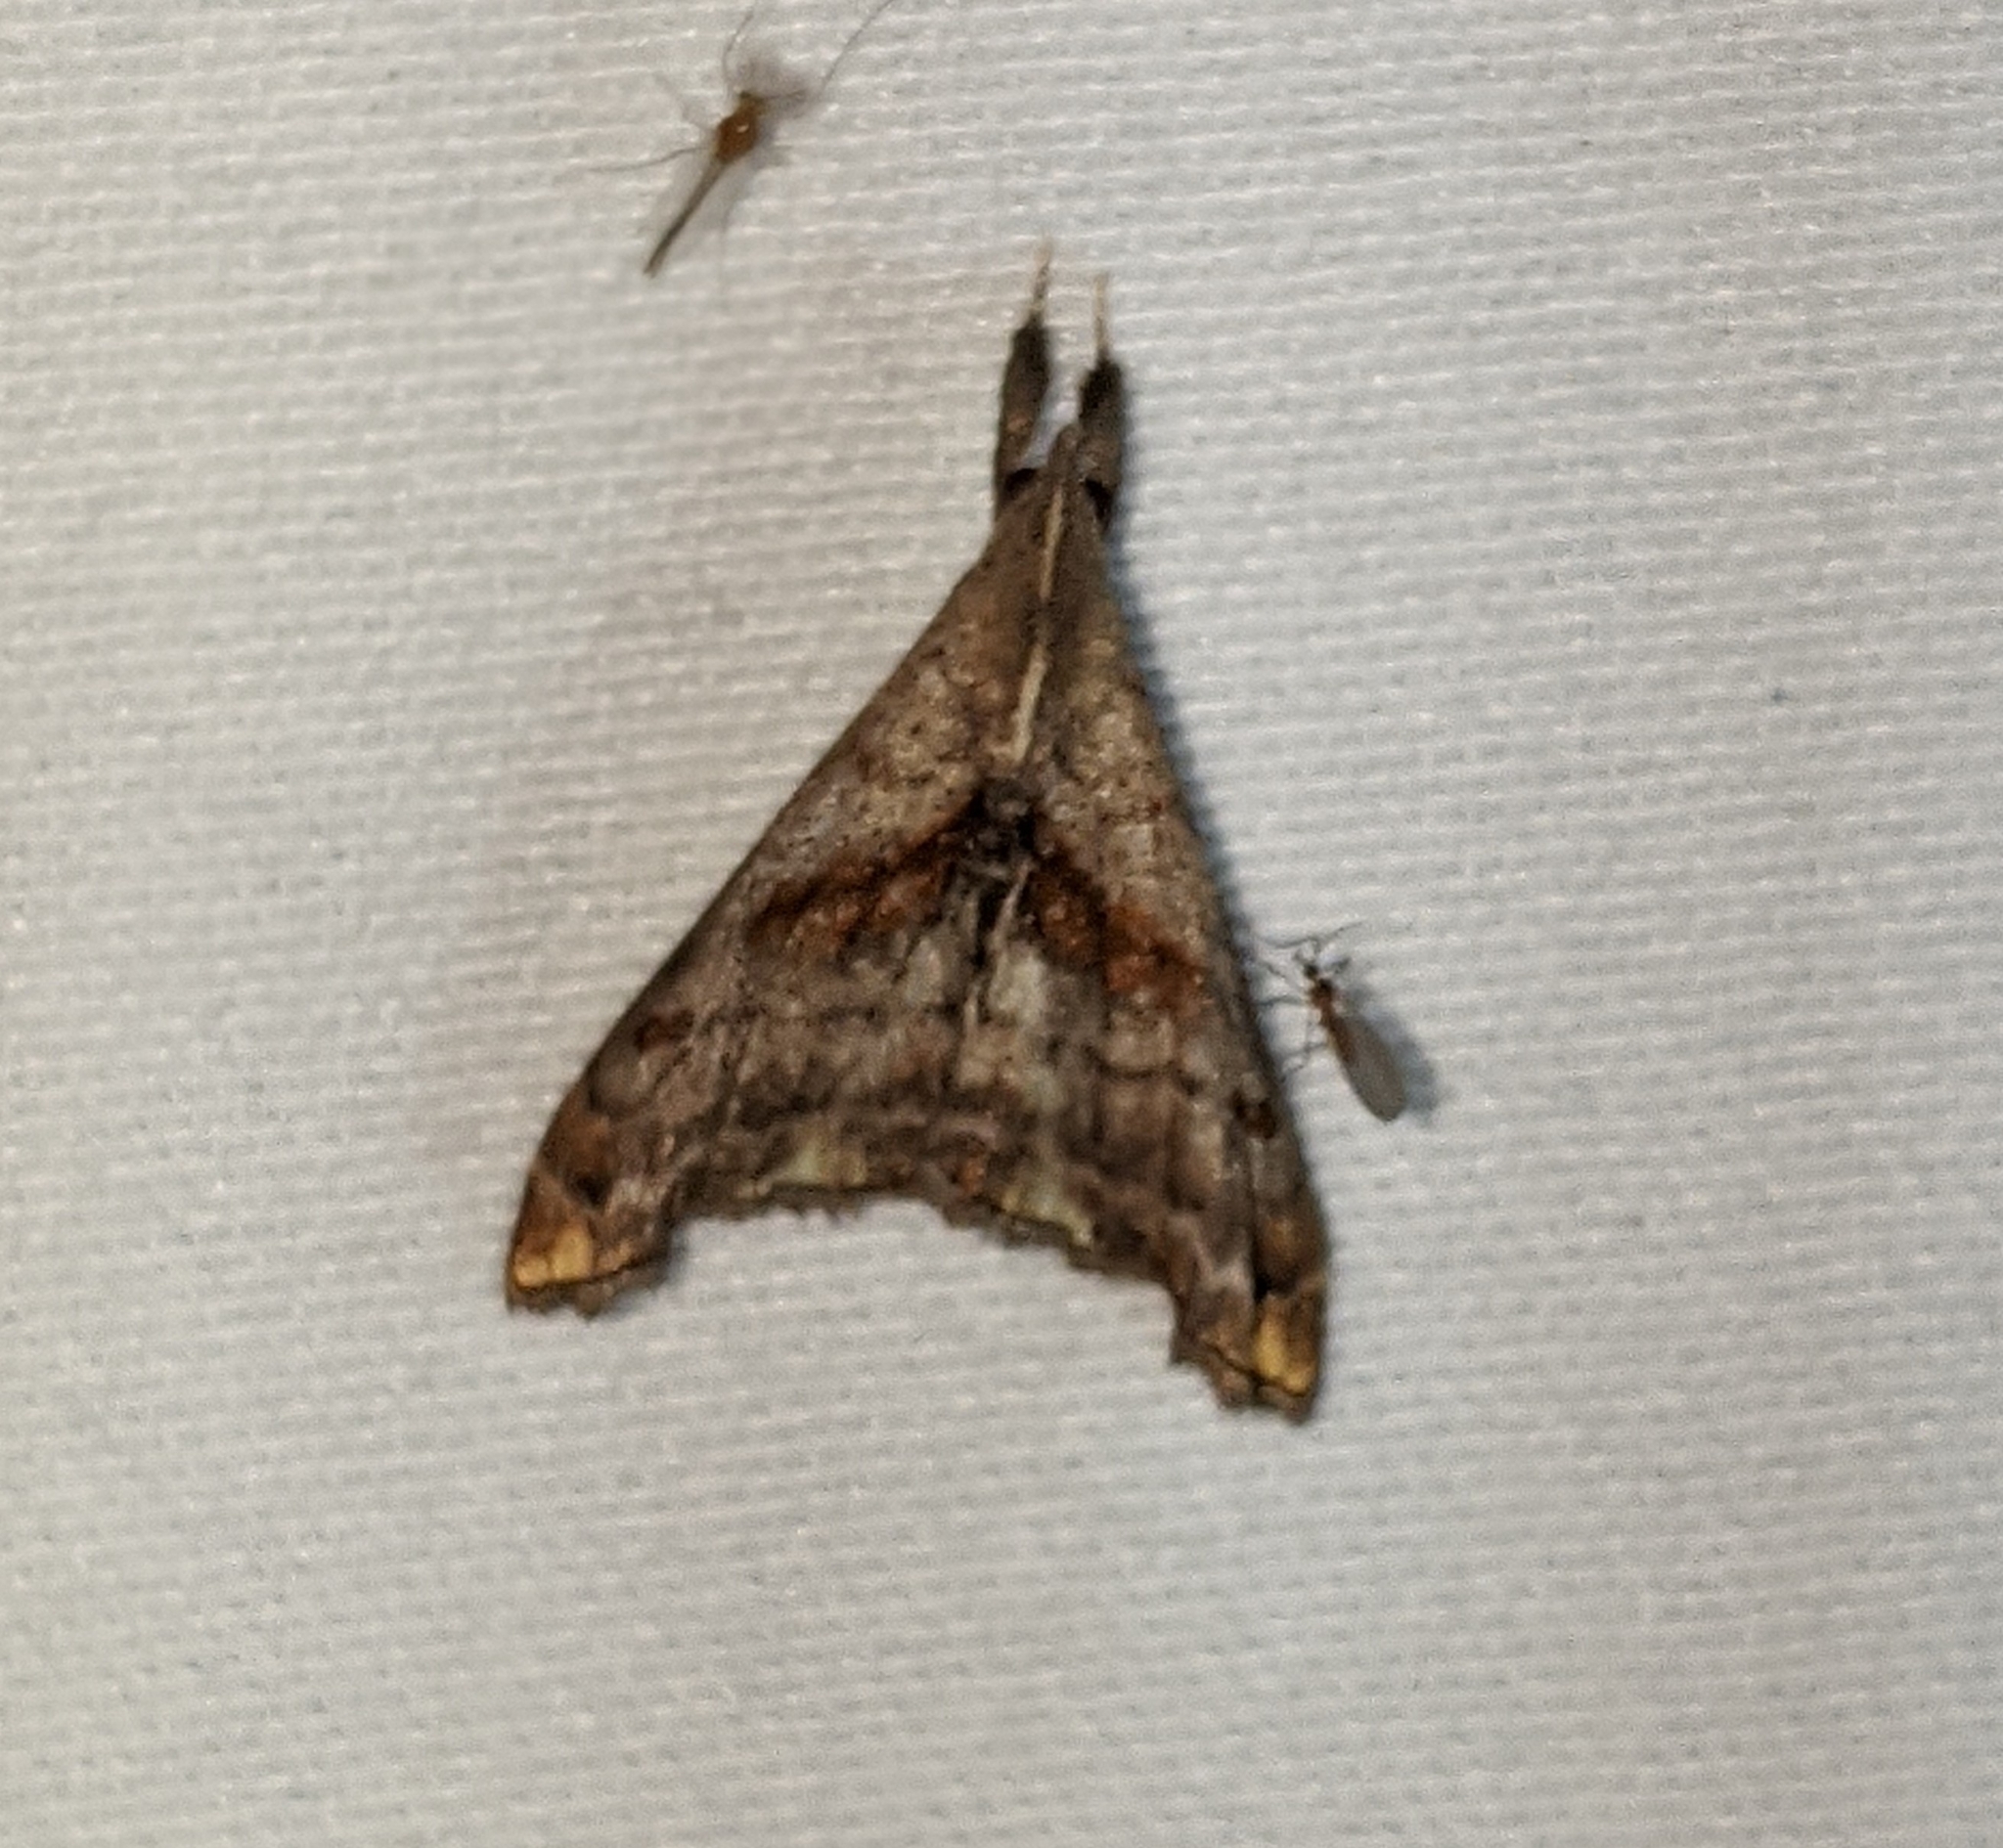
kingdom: Animalia
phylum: Arthropoda
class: Insecta
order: Lepidoptera
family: Erebidae
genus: Palthis
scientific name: Palthis angulalis
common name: Dark-spotted palthis moth
